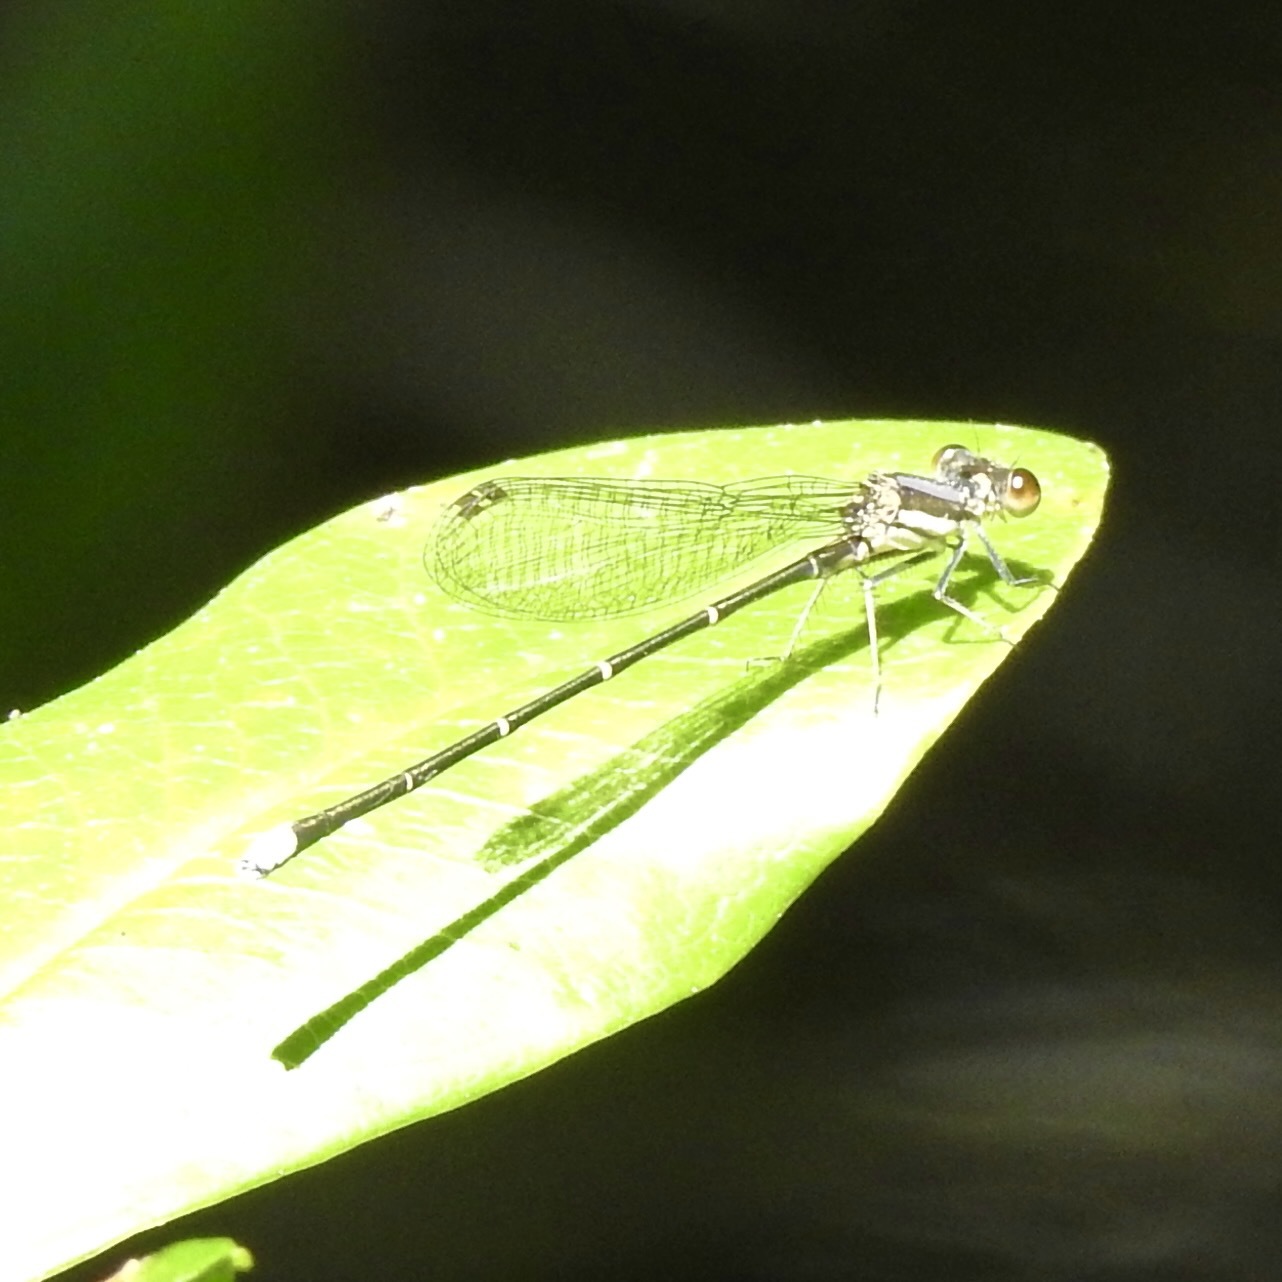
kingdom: Animalia
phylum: Arthropoda
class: Insecta
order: Odonata
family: Coenagrionidae
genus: Argia
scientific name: Argia tibialis
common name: Blue-tipped dancer
